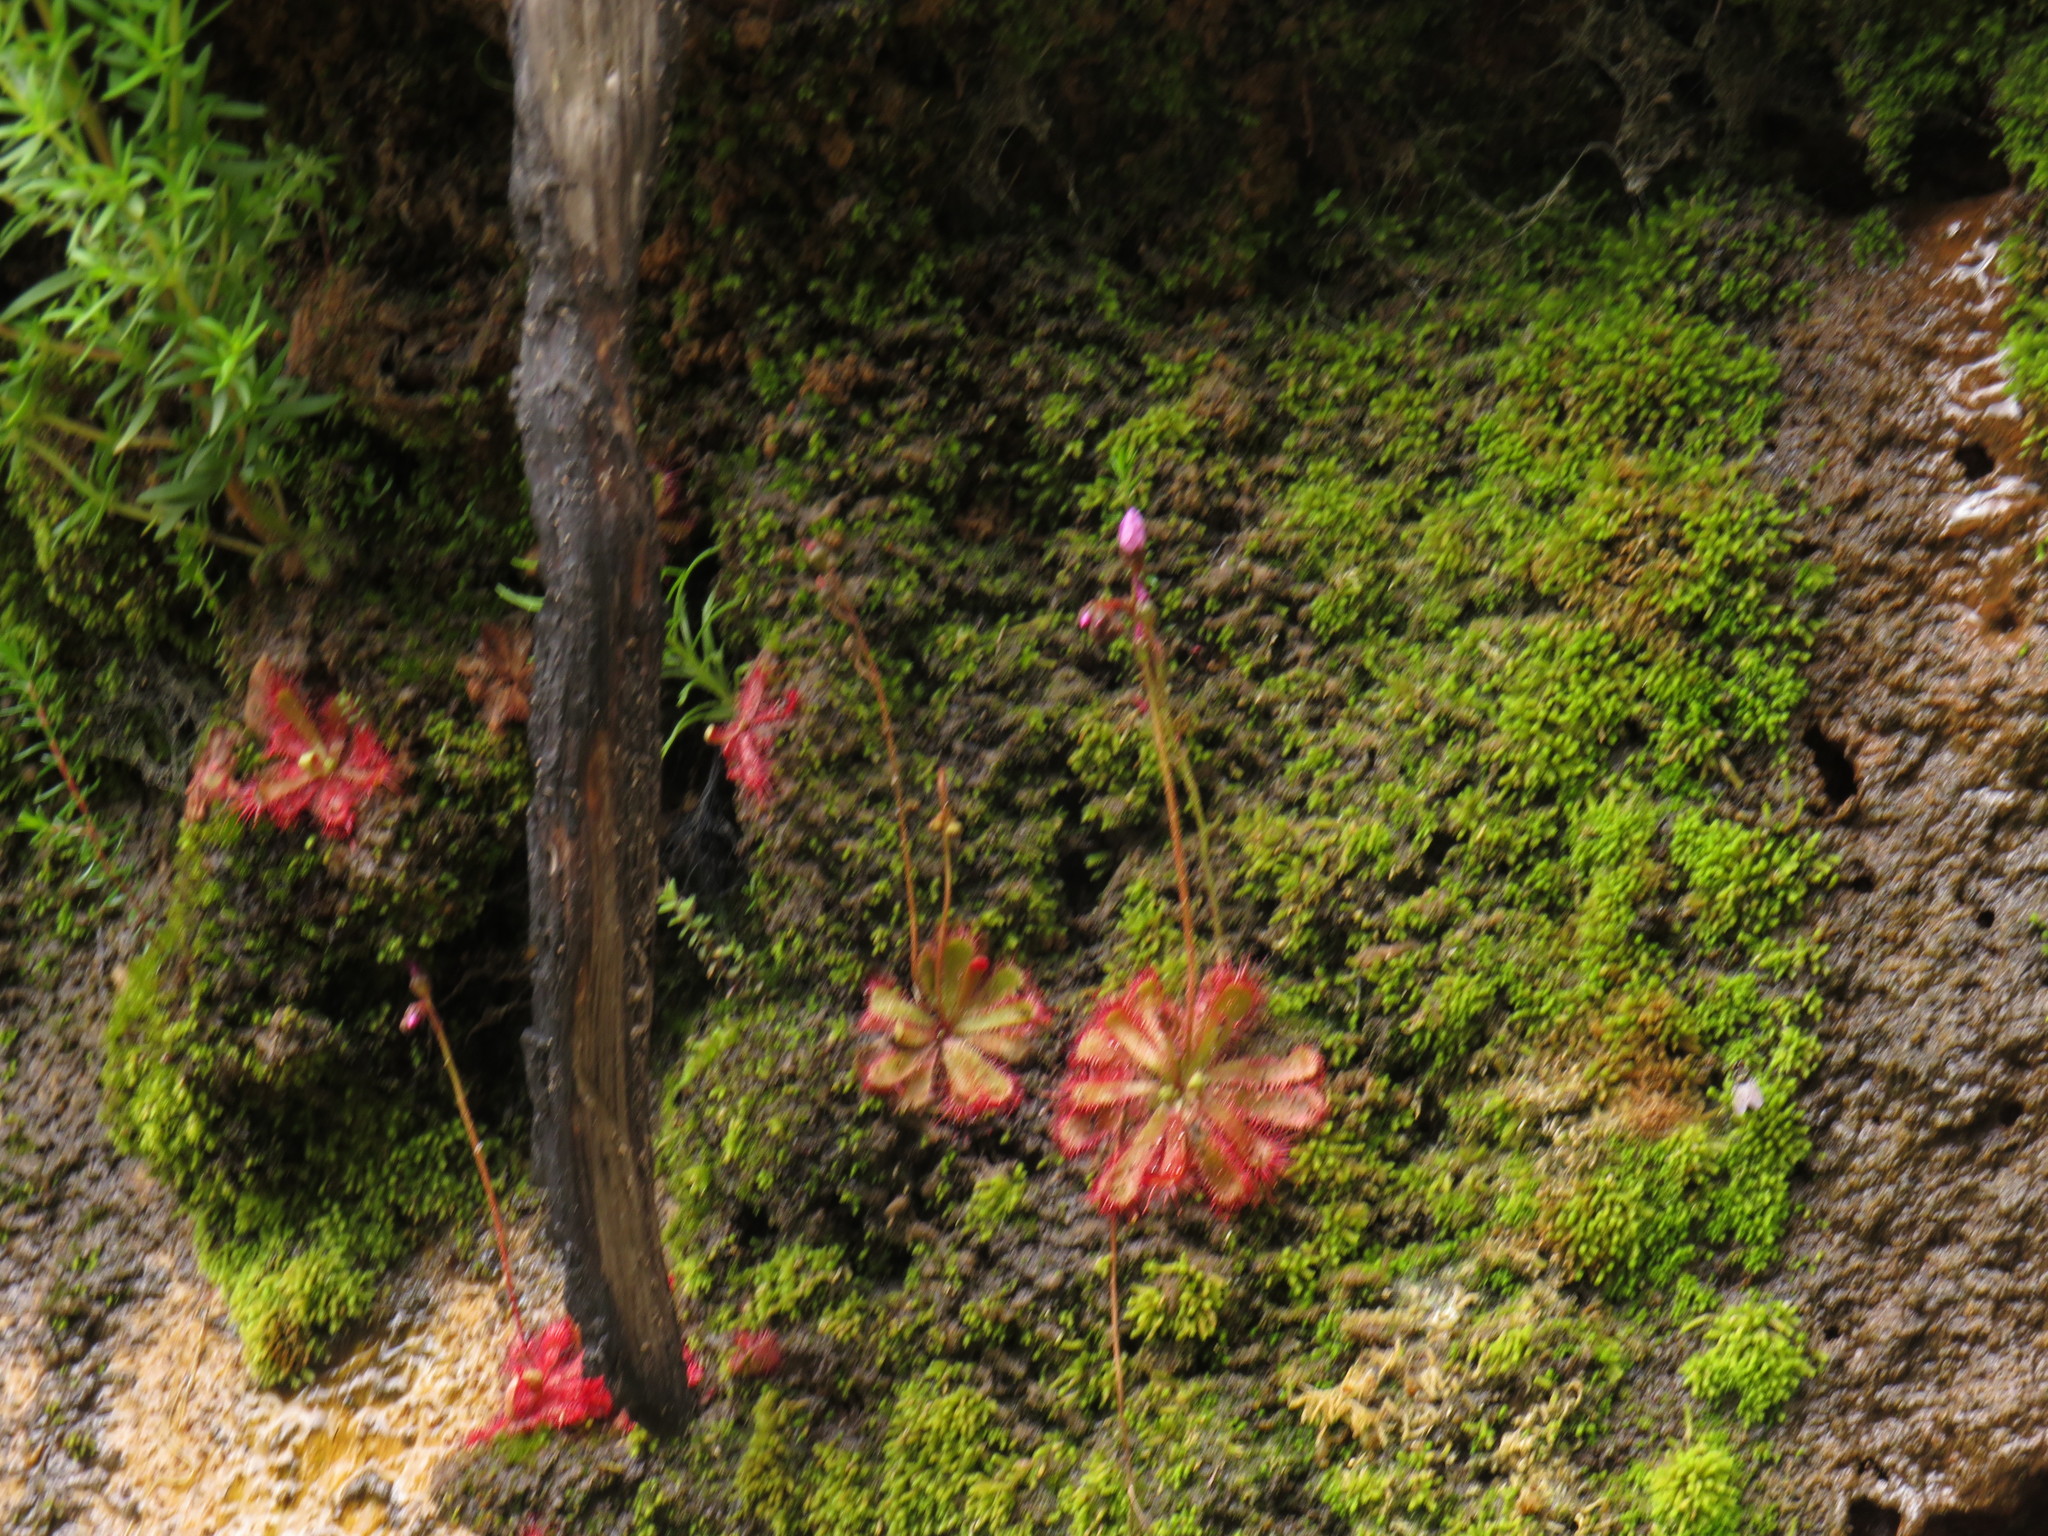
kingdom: Plantae
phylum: Tracheophyta
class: Magnoliopsida
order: Caryophyllales
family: Droseraceae
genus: Drosera
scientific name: Drosera trinervia
